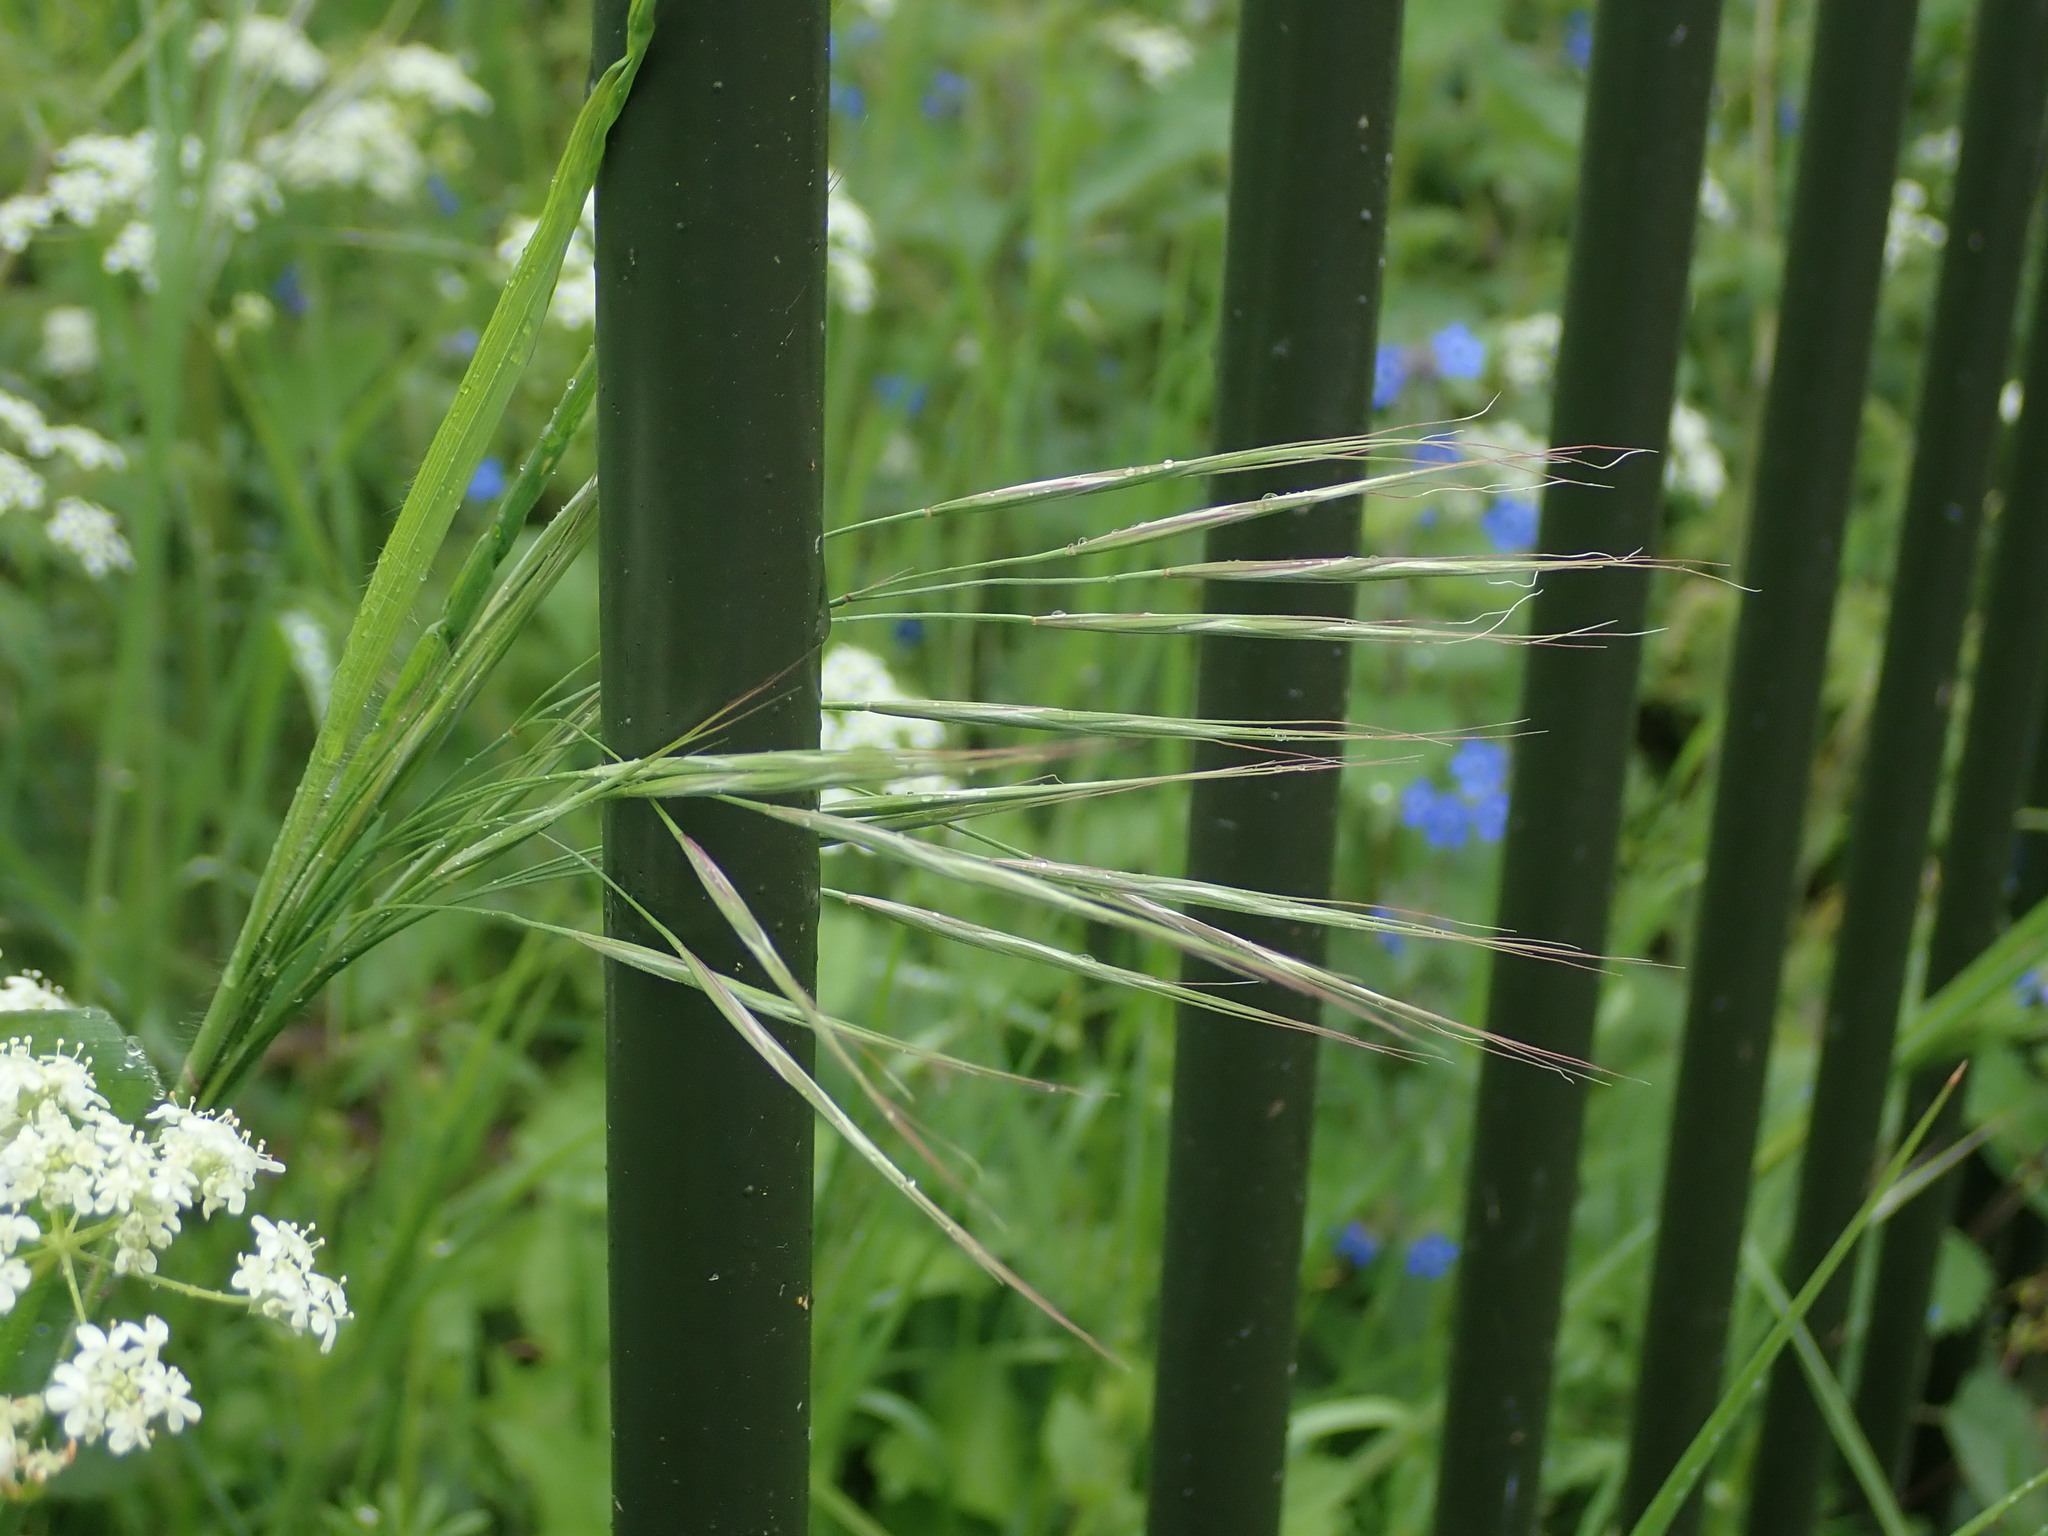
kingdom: Plantae
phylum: Tracheophyta
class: Liliopsida
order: Poales
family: Poaceae
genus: Bromus
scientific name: Bromus sterilis
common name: Poverty brome
